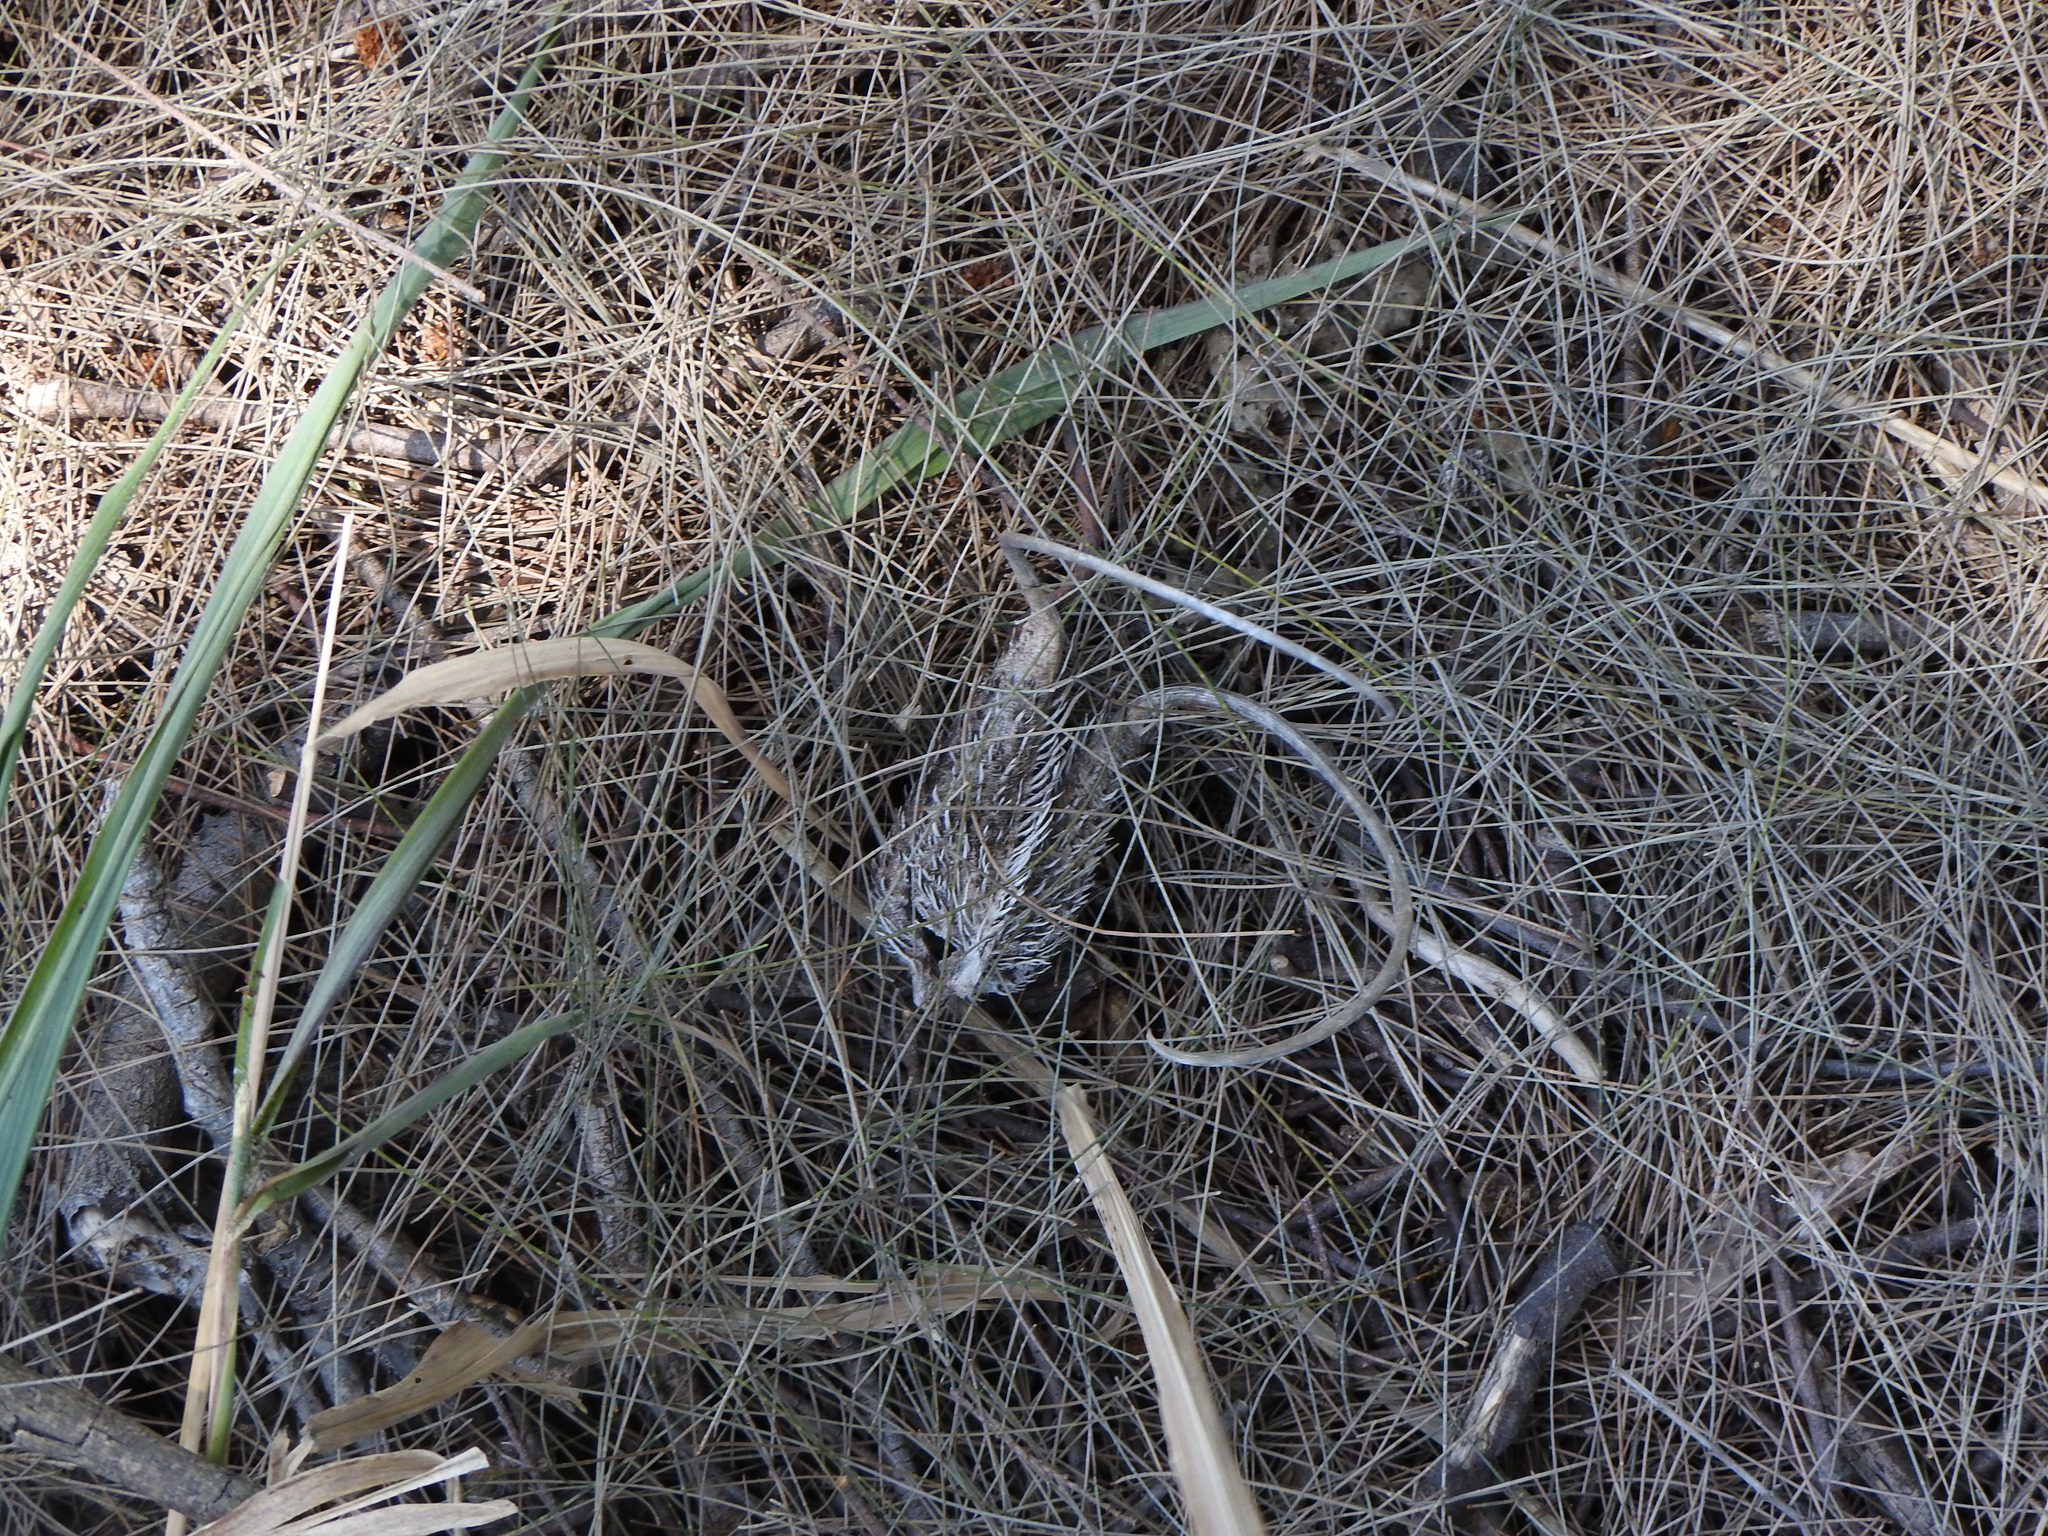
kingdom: Plantae
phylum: Tracheophyta
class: Magnoliopsida
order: Lamiales
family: Martyniaceae
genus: Ibicella
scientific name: Ibicella lutea
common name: Yellow unicorn-plant
